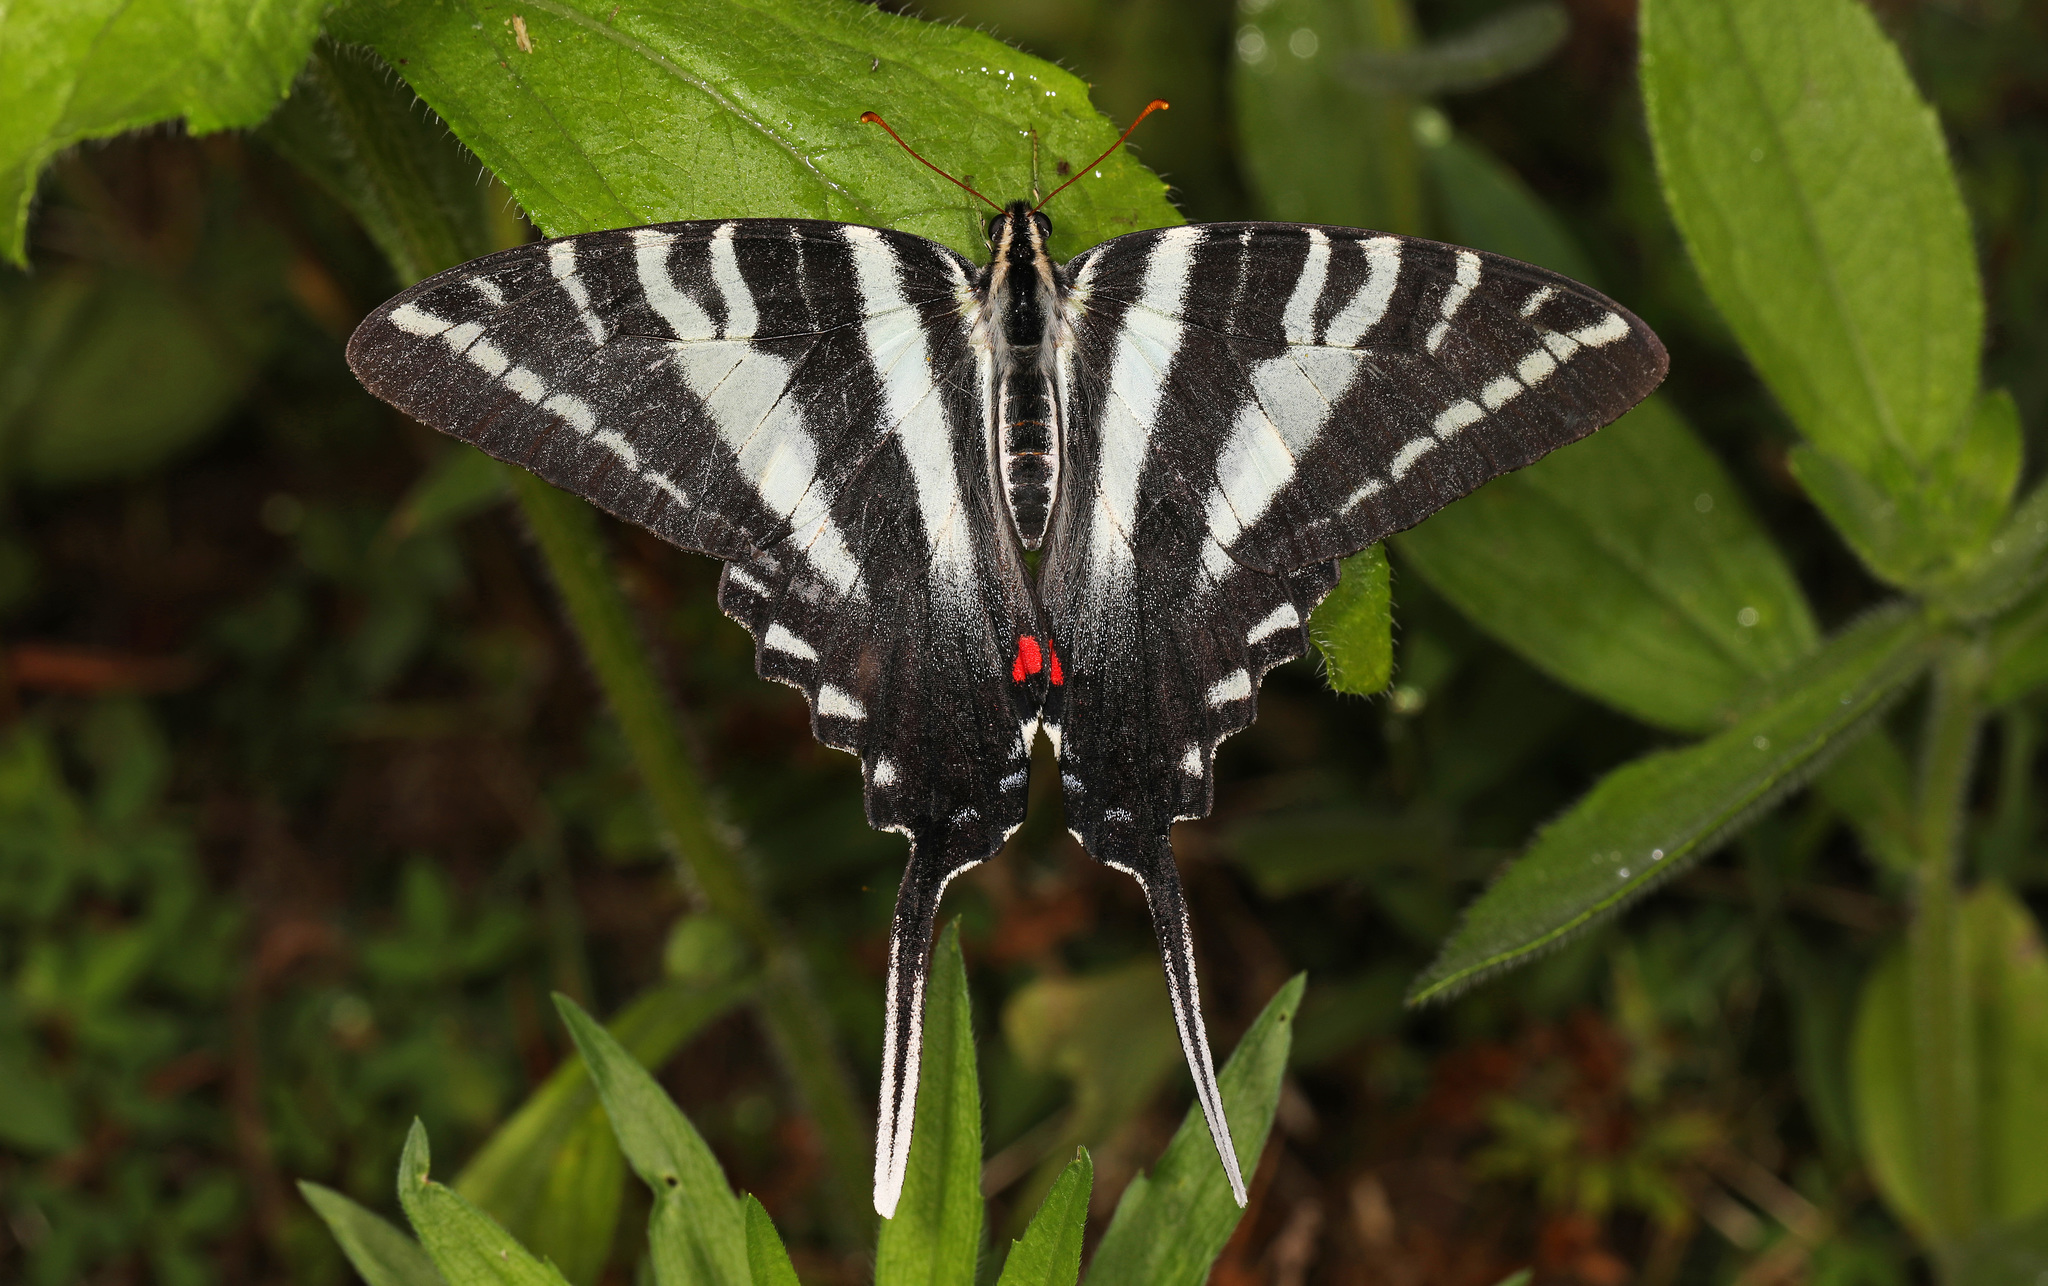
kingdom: Animalia
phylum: Arthropoda
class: Insecta
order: Lepidoptera
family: Papilionidae
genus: Protographium
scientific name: Protographium marcellus
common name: Zebra swallowtail
